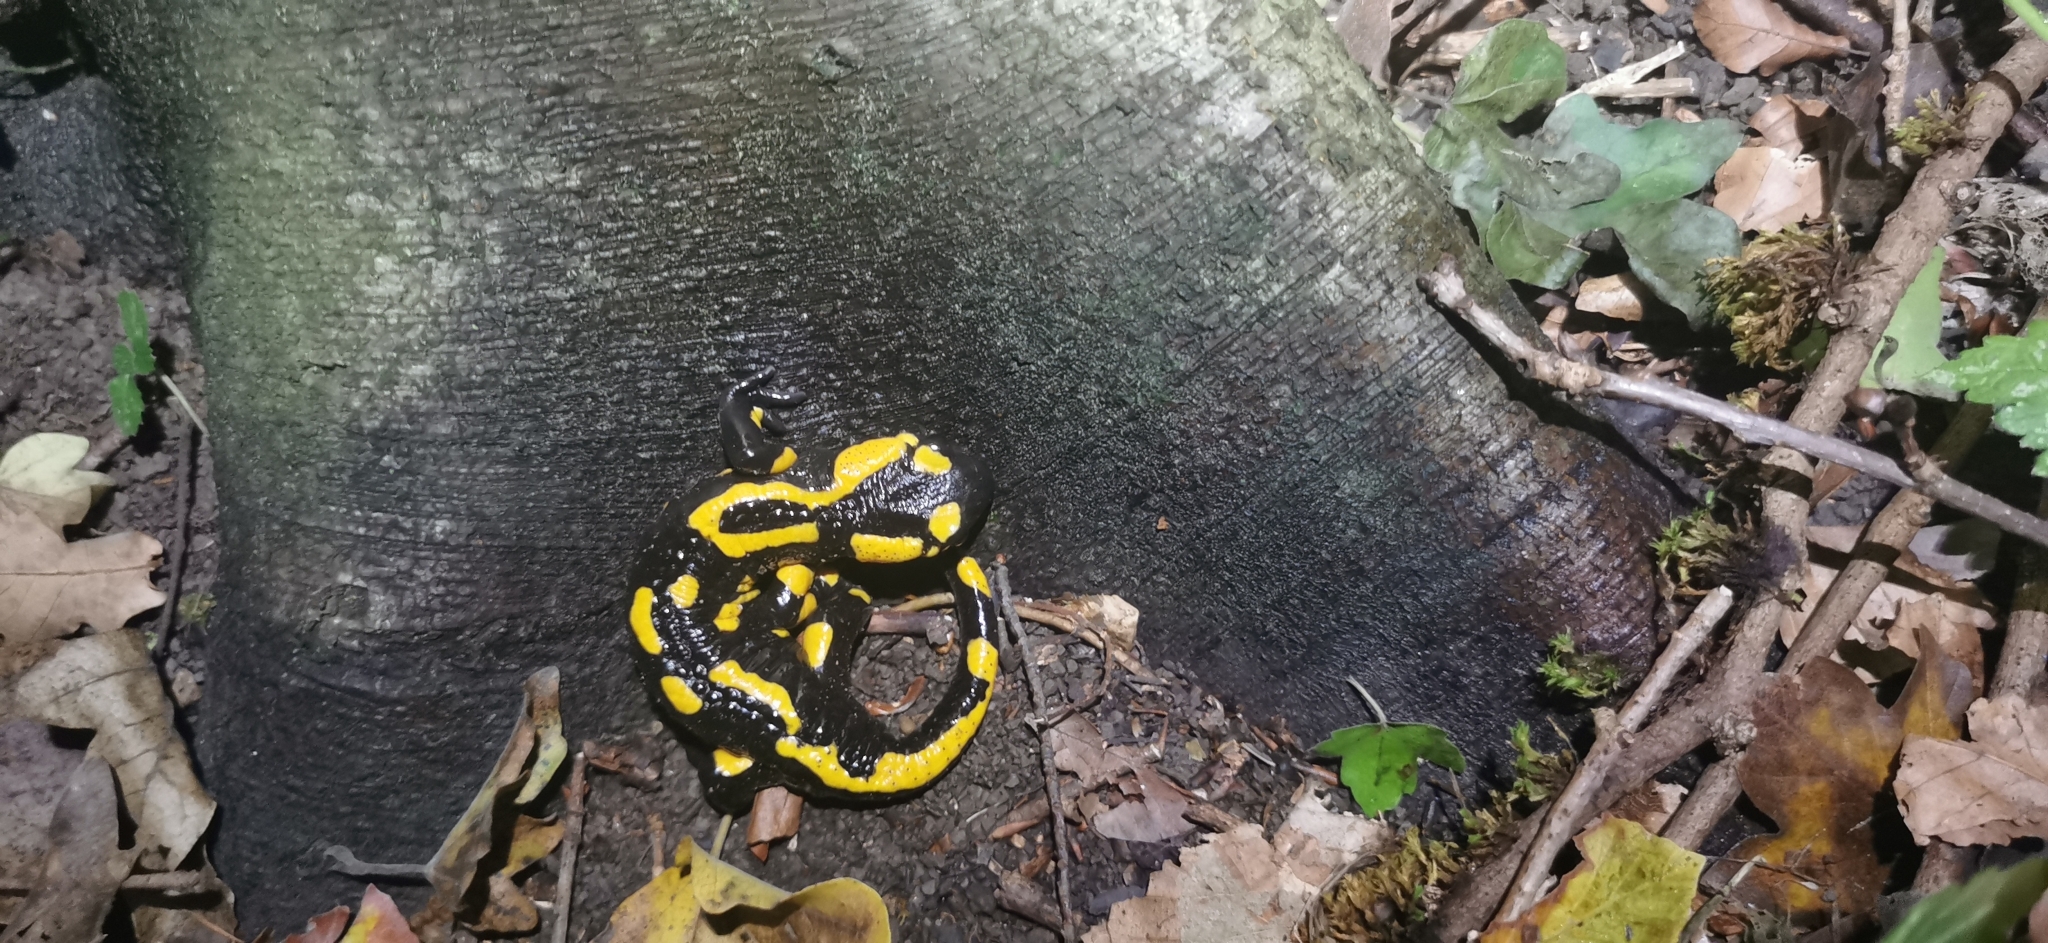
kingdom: Animalia
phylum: Chordata
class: Amphibia
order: Caudata
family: Salamandridae
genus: Salamandra
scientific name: Salamandra salamandra
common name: Fire salamander
